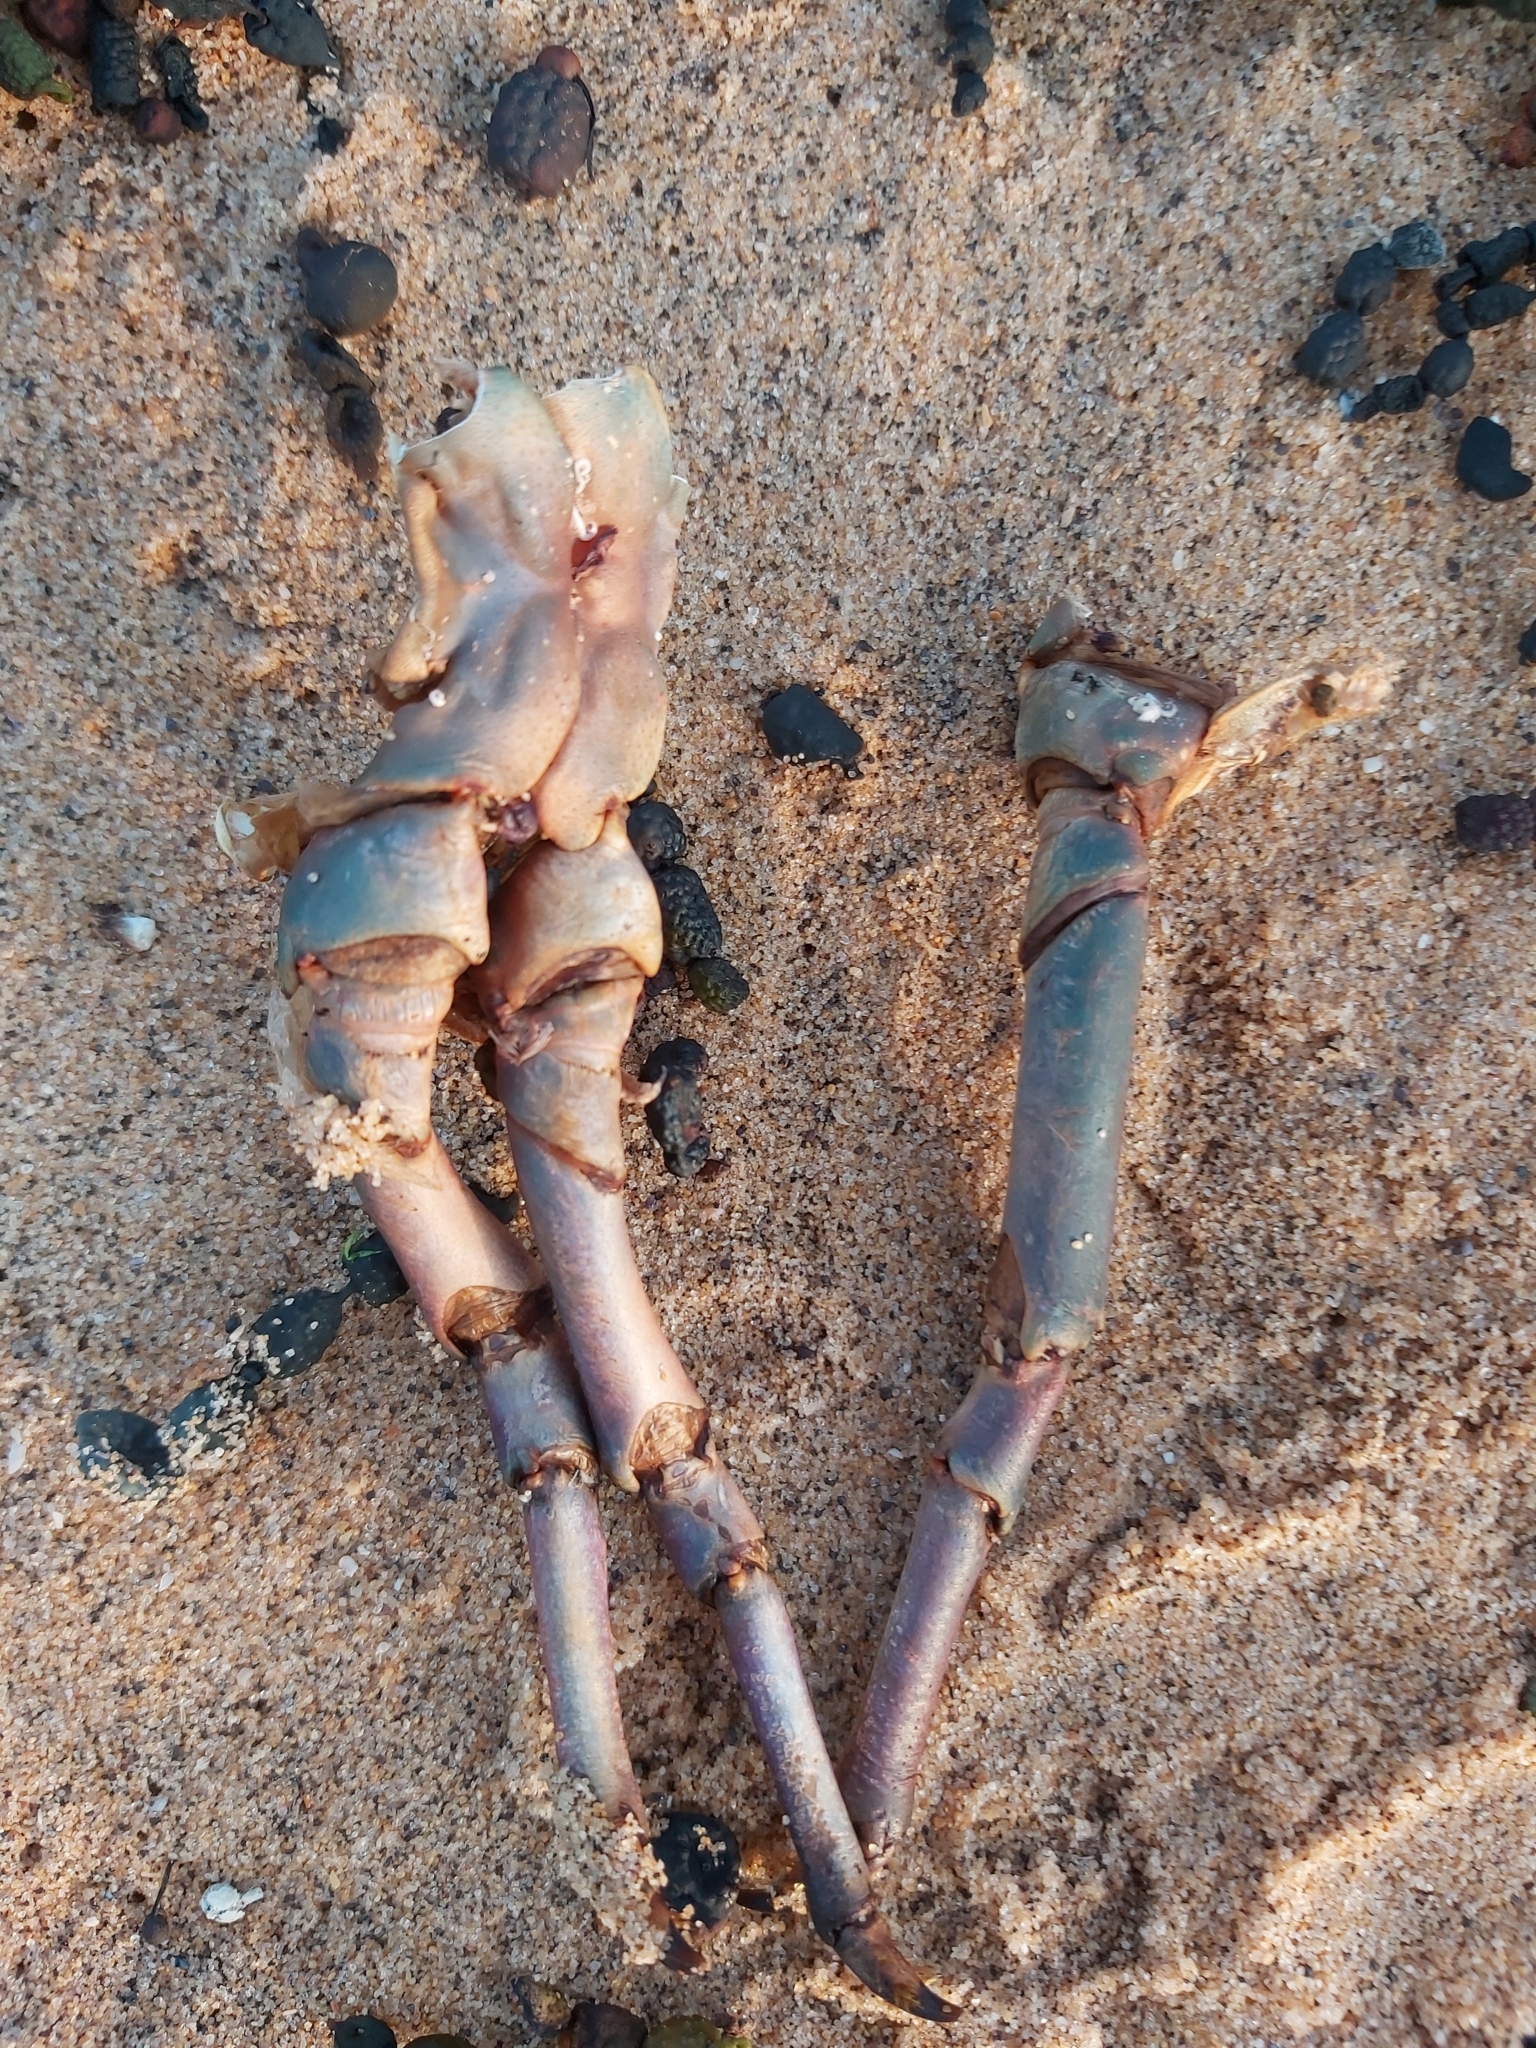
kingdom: Animalia
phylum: Arthropoda
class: Malacostraca
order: Decapoda
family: Palinuridae
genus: Sagmariasus
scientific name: Sagmariasus verreauxi
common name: Green rock lobster
